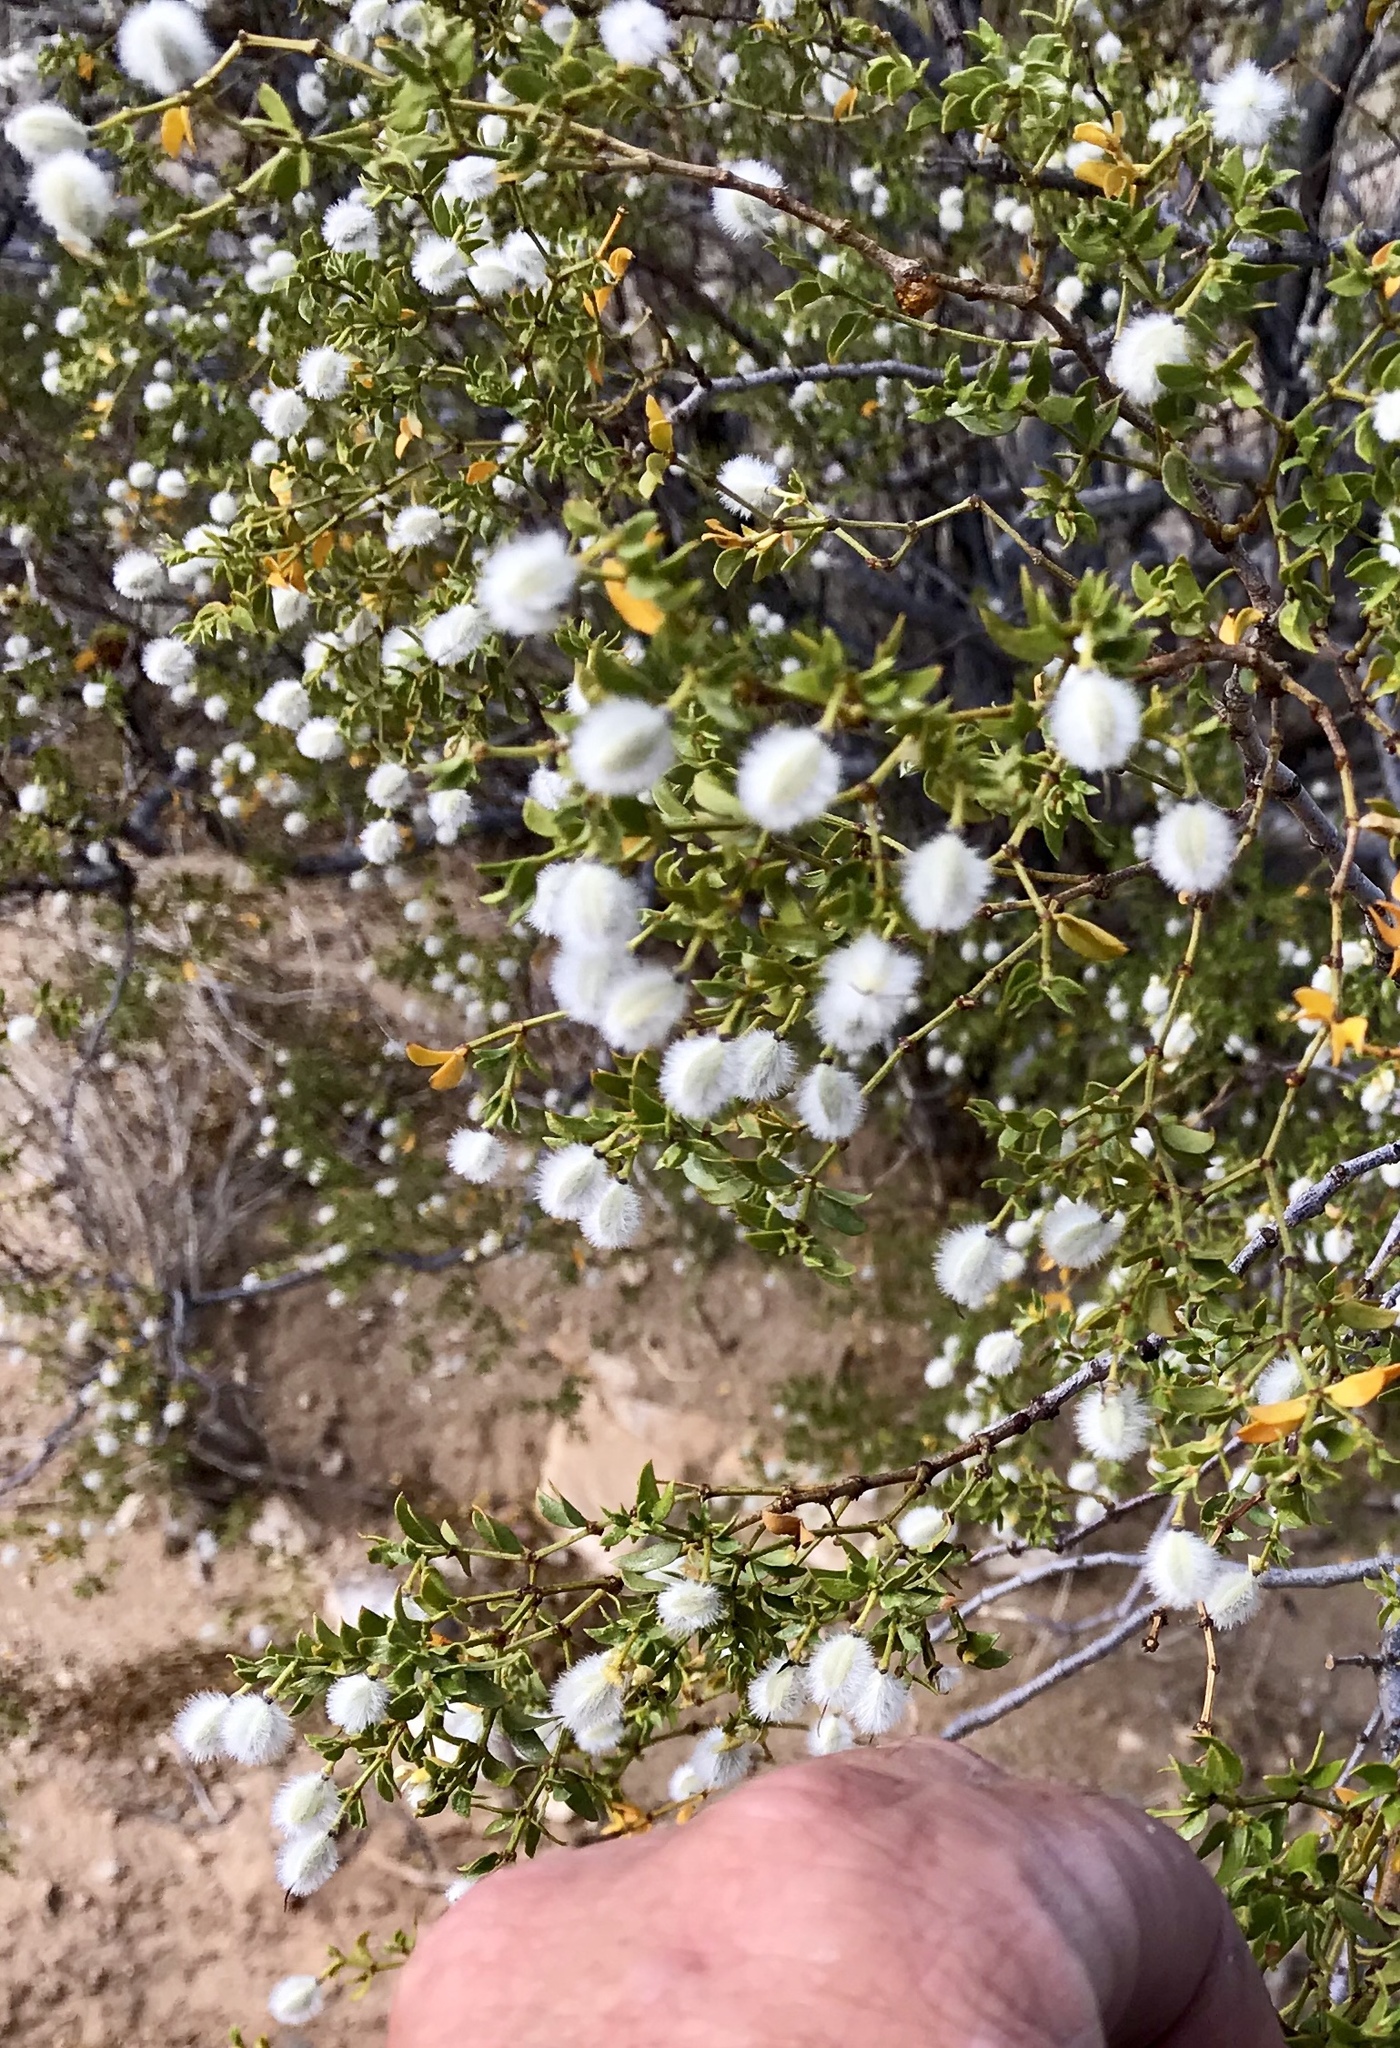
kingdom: Plantae
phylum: Tracheophyta
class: Magnoliopsida
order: Zygophyllales
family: Zygophyllaceae
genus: Larrea
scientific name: Larrea tridentata
